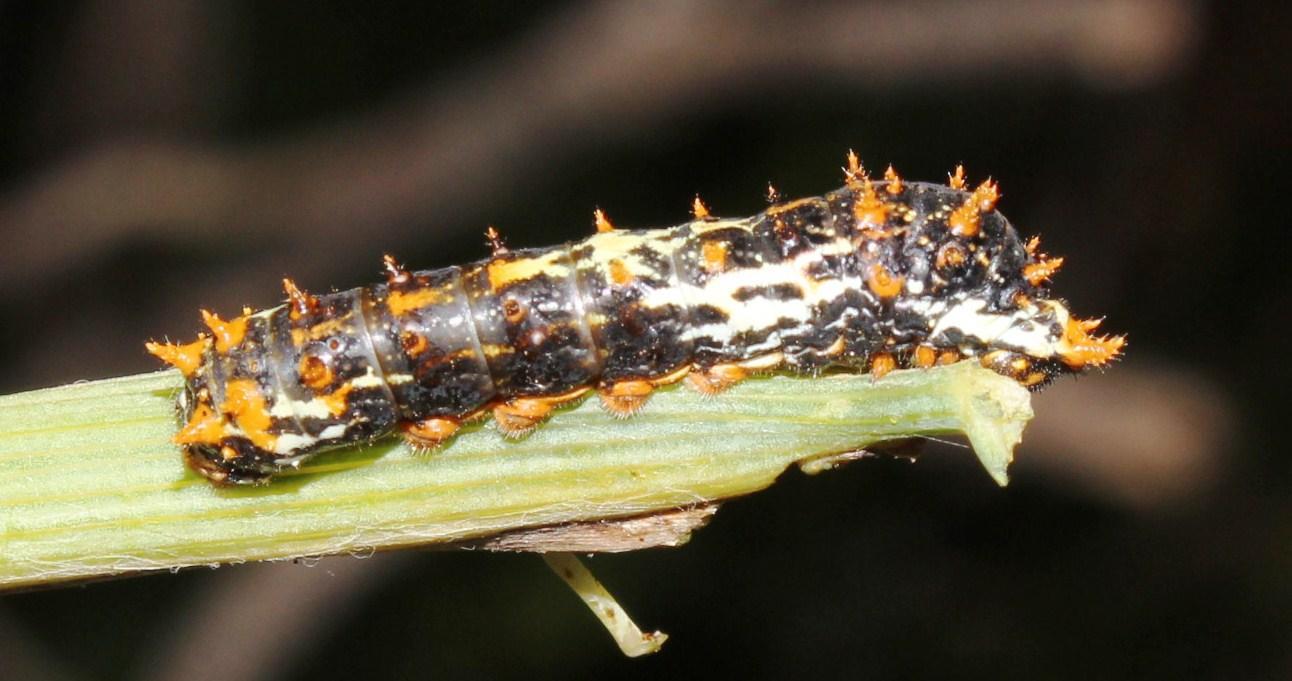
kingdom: Animalia
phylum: Arthropoda
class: Insecta
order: Lepidoptera
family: Papilionidae
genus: Papilio
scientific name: Papilio demodocus
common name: Christmas butterfly
